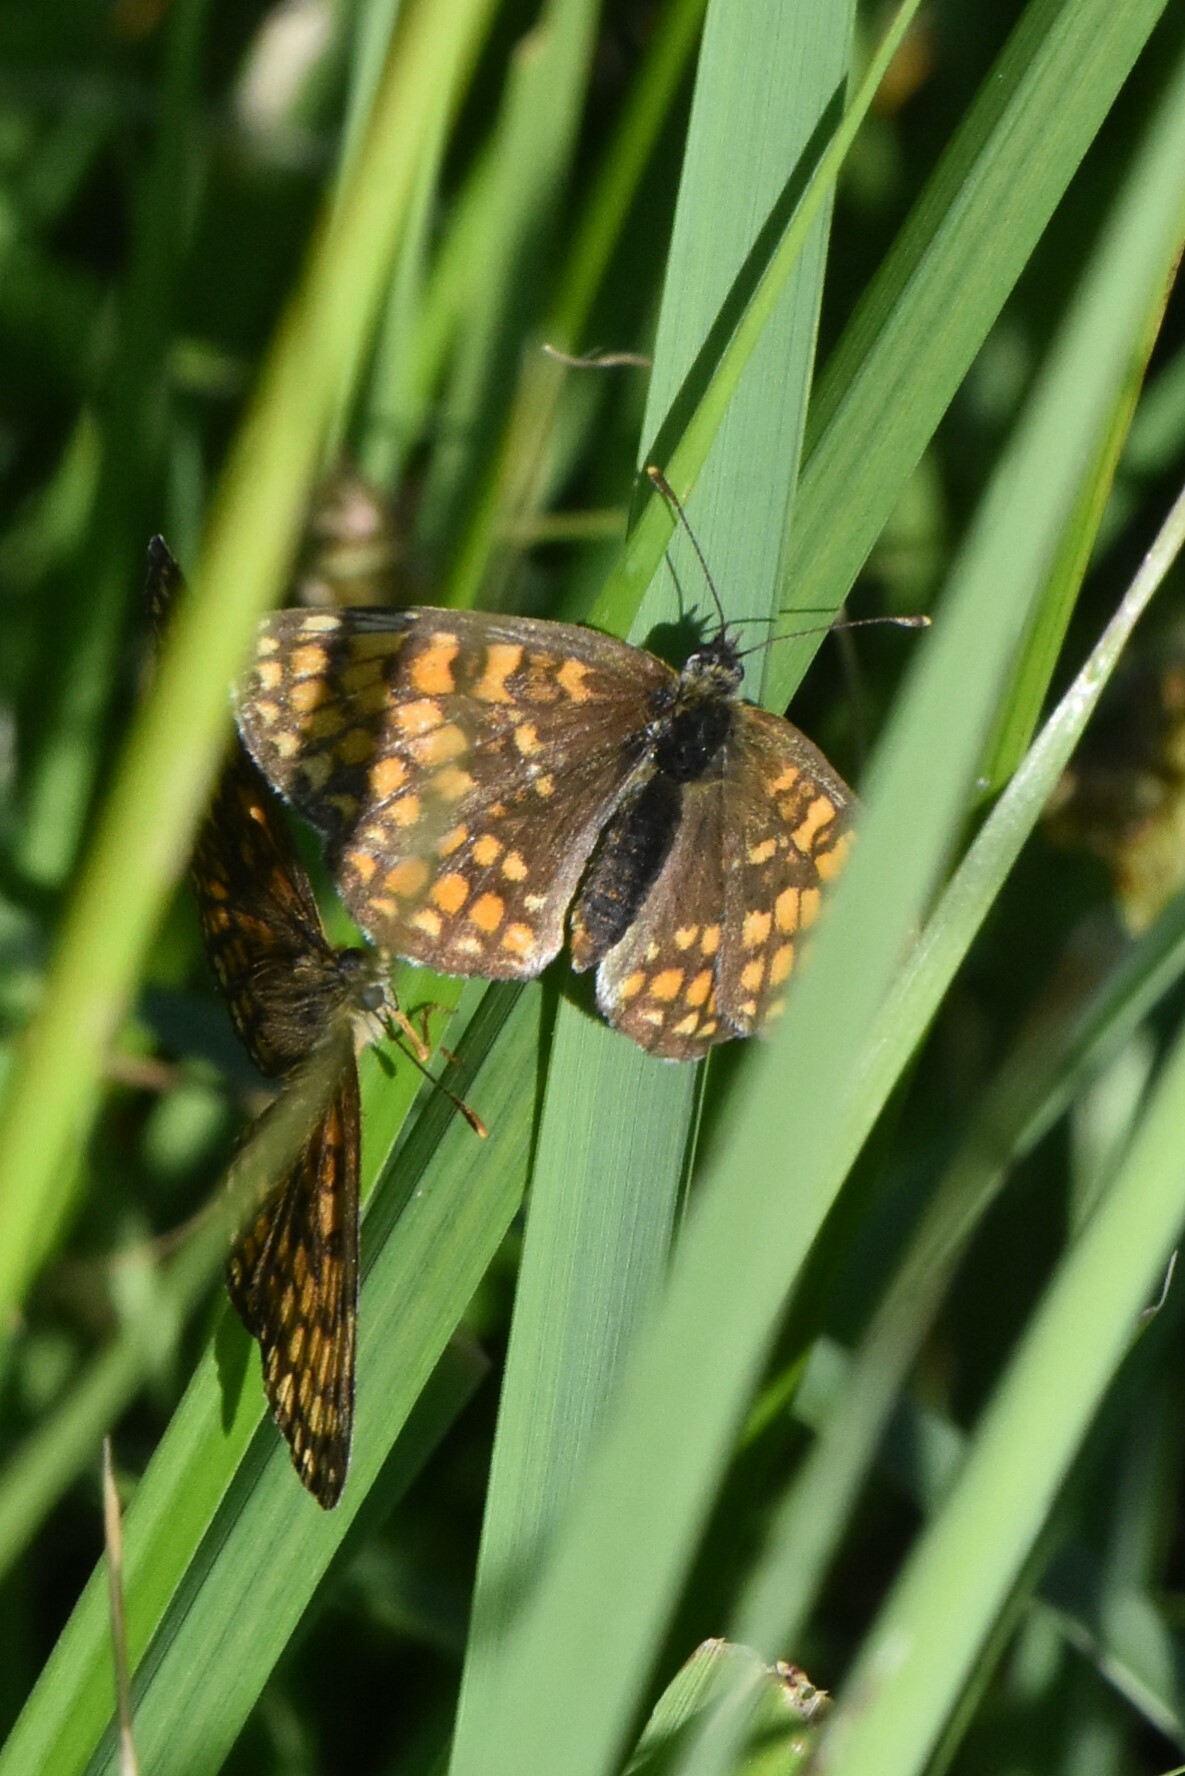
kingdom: Animalia
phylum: Arthropoda
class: Insecta
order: Lepidoptera
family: Nymphalidae
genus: Melitaea
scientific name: Melitaea athalia
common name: Heath fritillary
